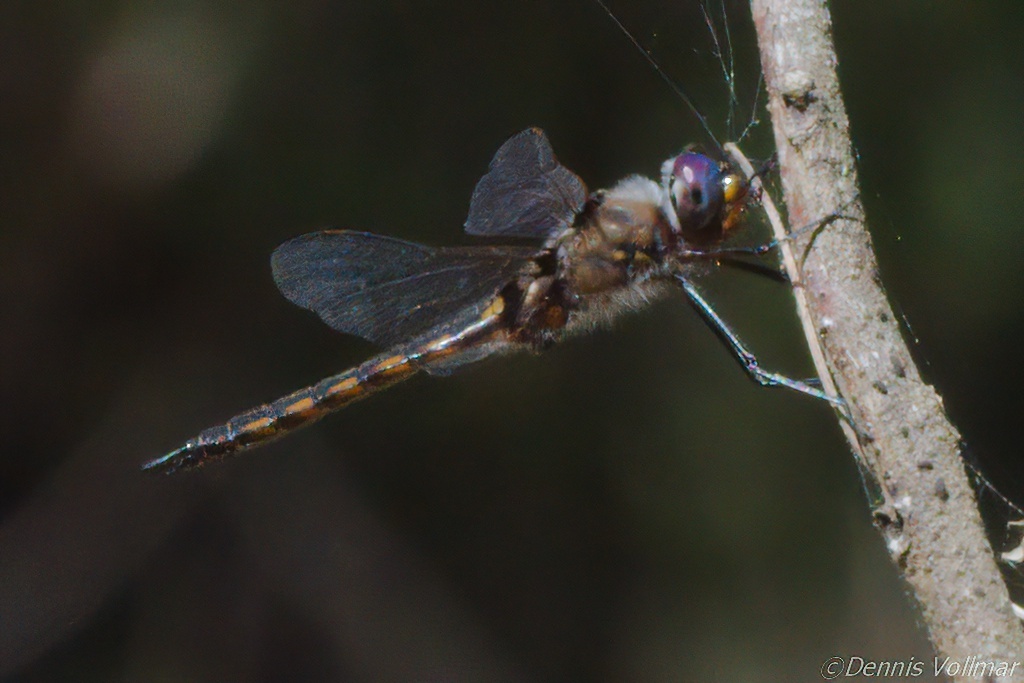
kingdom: Animalia
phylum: Arthropoda
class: Insecta
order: Odonata
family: Corduliidae
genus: Epitheca
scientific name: Epitheca cynosura
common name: Common baskettail
